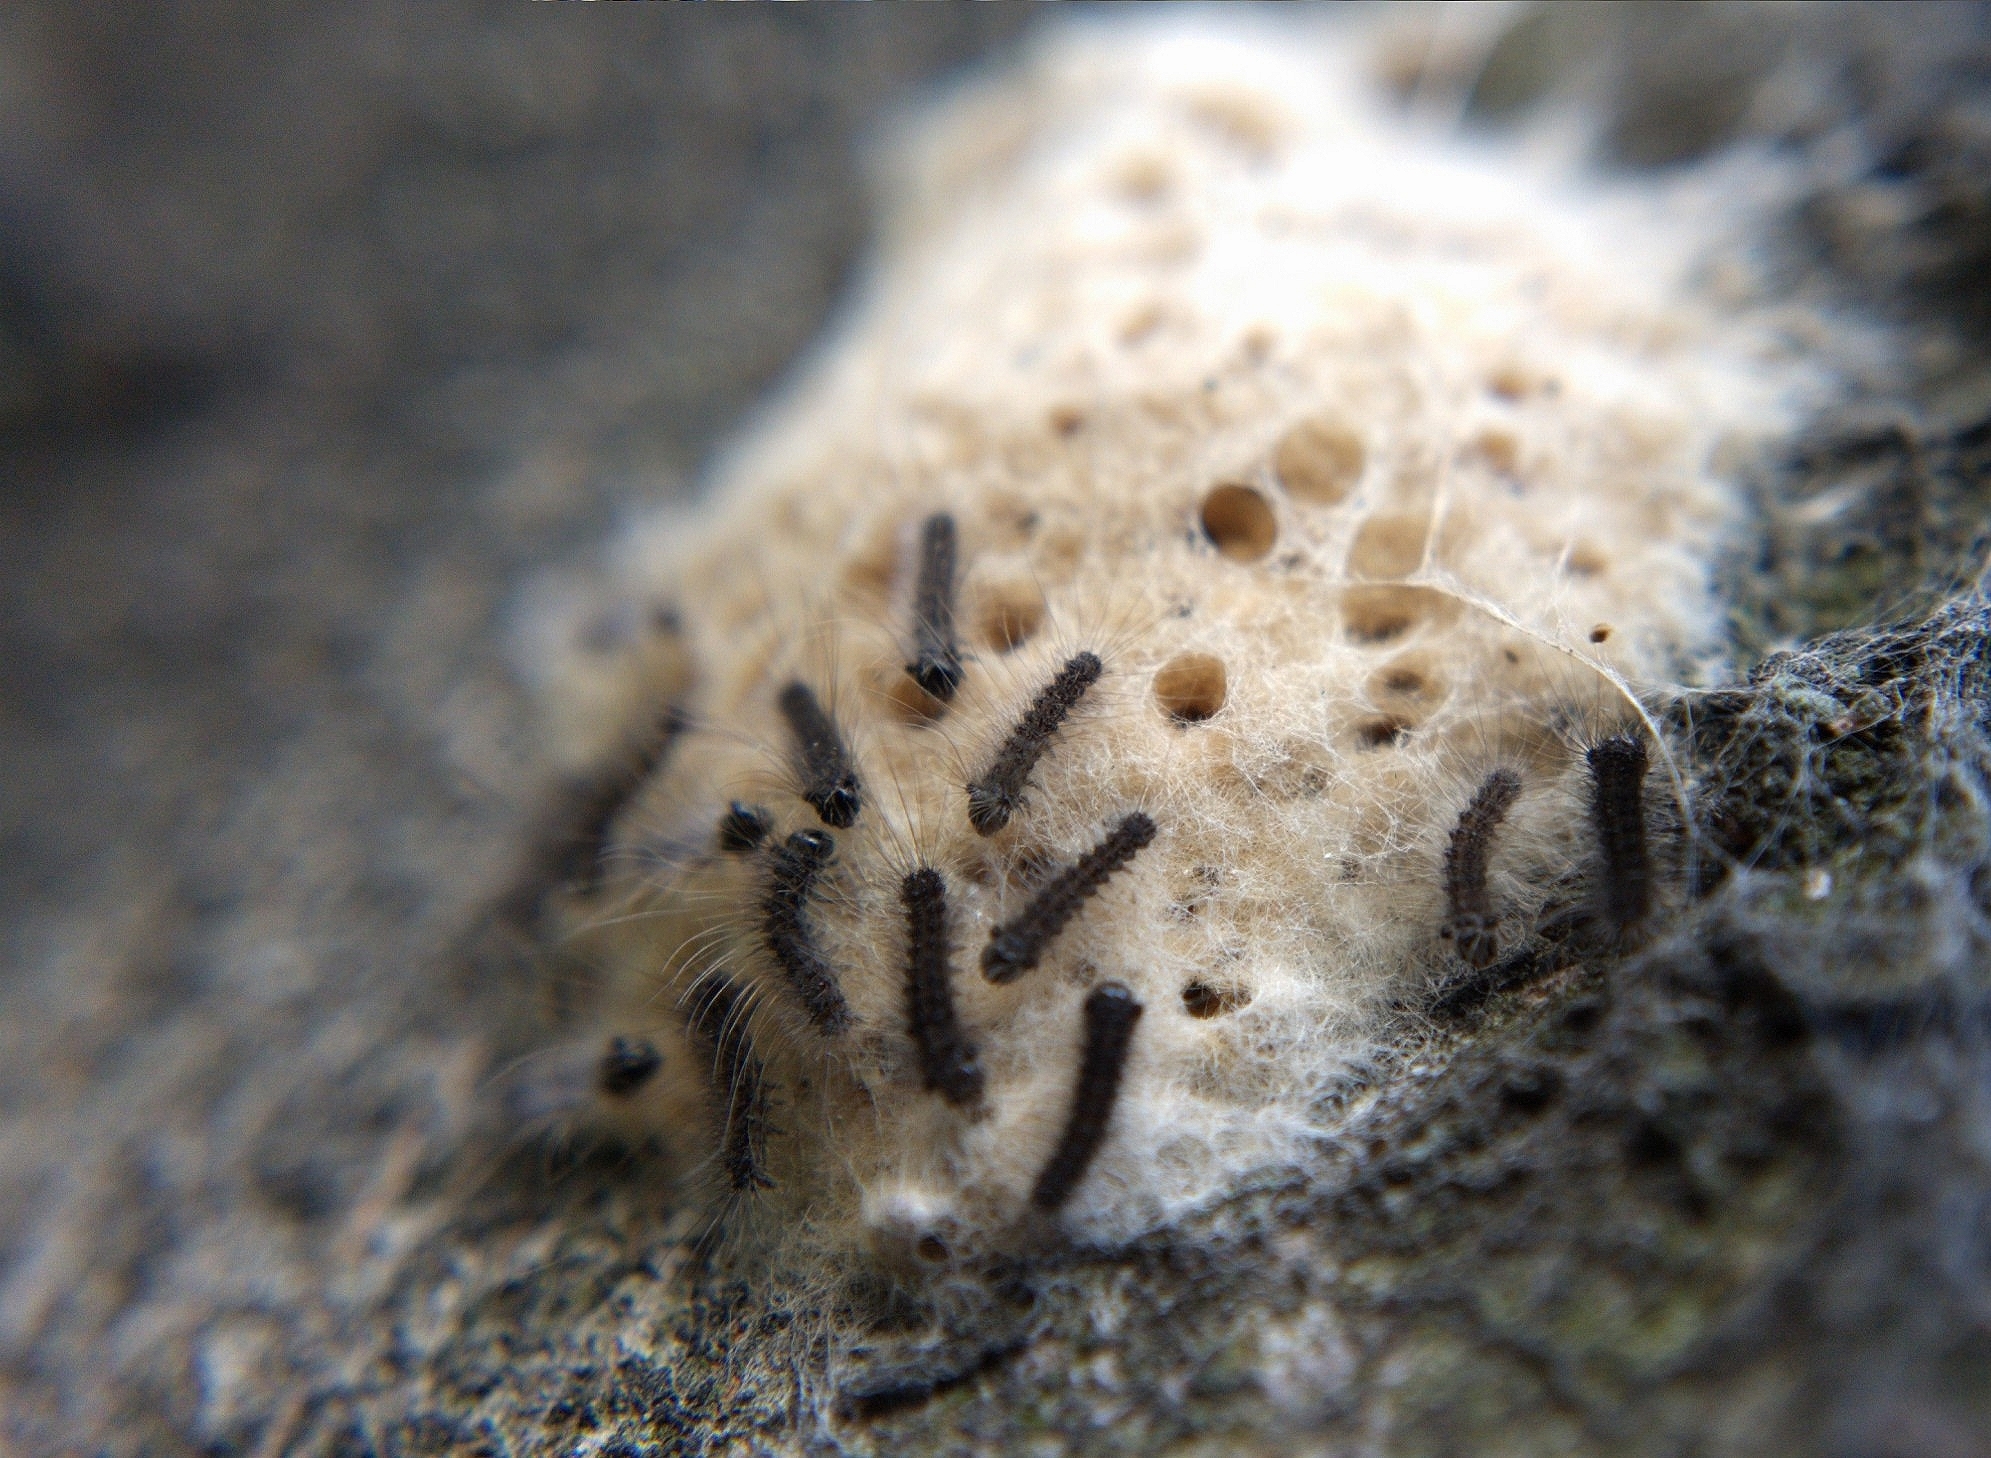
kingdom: Animalia
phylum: Arthropoda
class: Insecta
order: Lepidoptera
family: Erebidae
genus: Lymantria
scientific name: Lymantria dispar
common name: Gypsy moth
